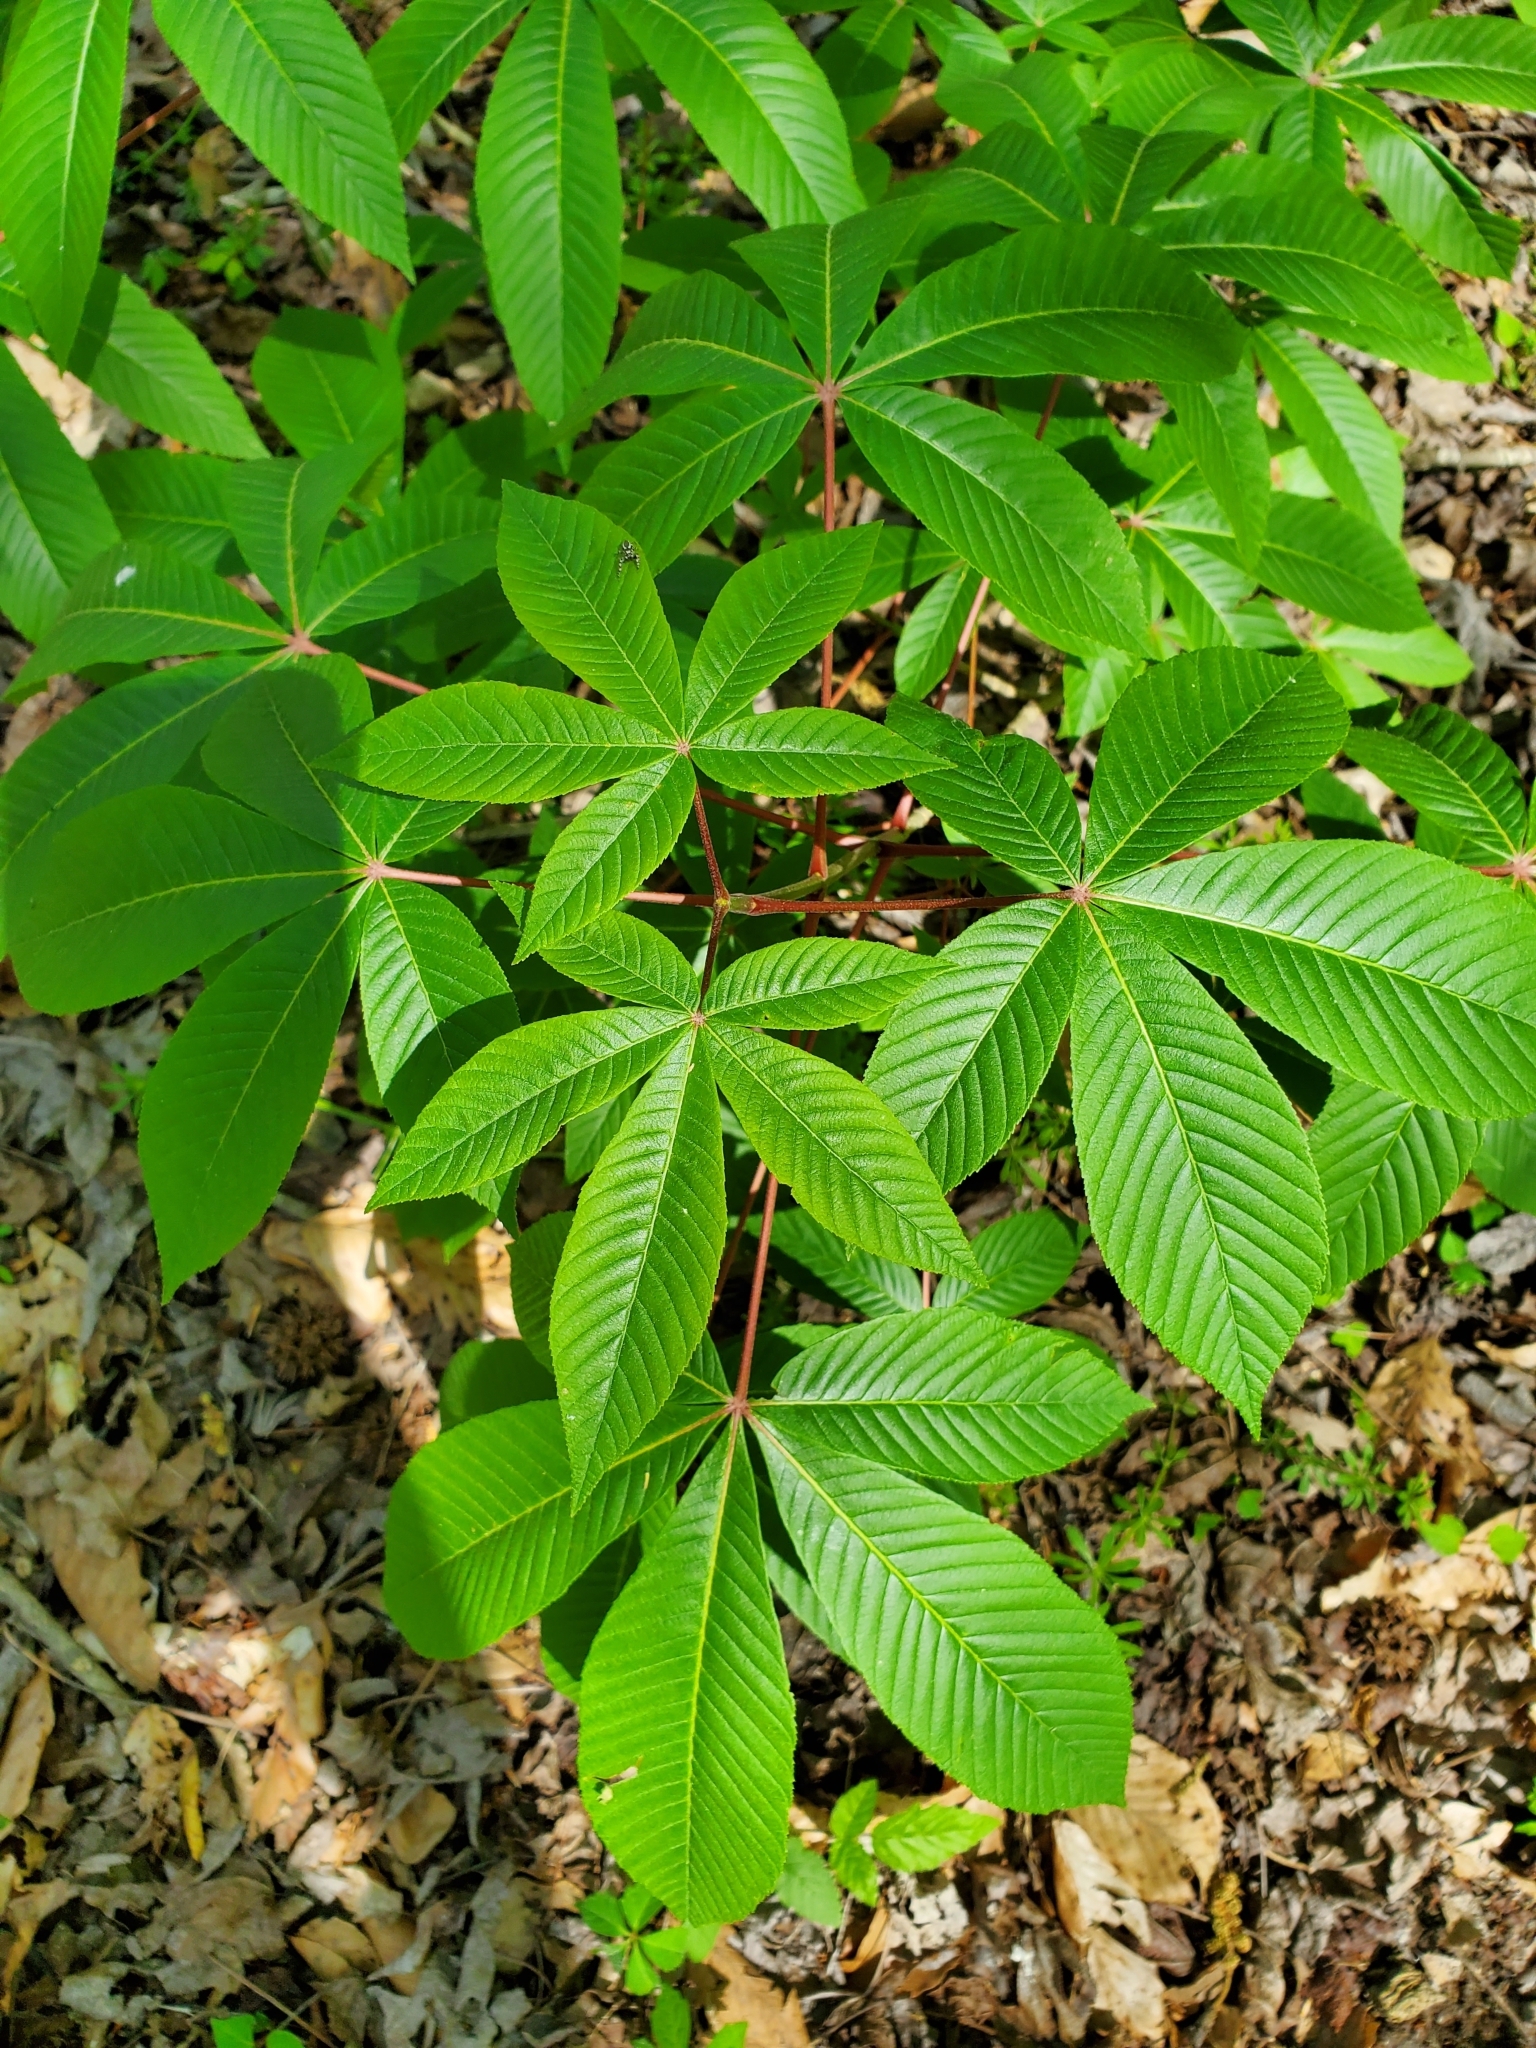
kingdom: Plantae
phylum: Tracheophyta
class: Magnoliopsida
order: Sapindales
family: Sapindaceae
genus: Aesculus
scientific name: Aesculus pavia
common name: Red buckeye
